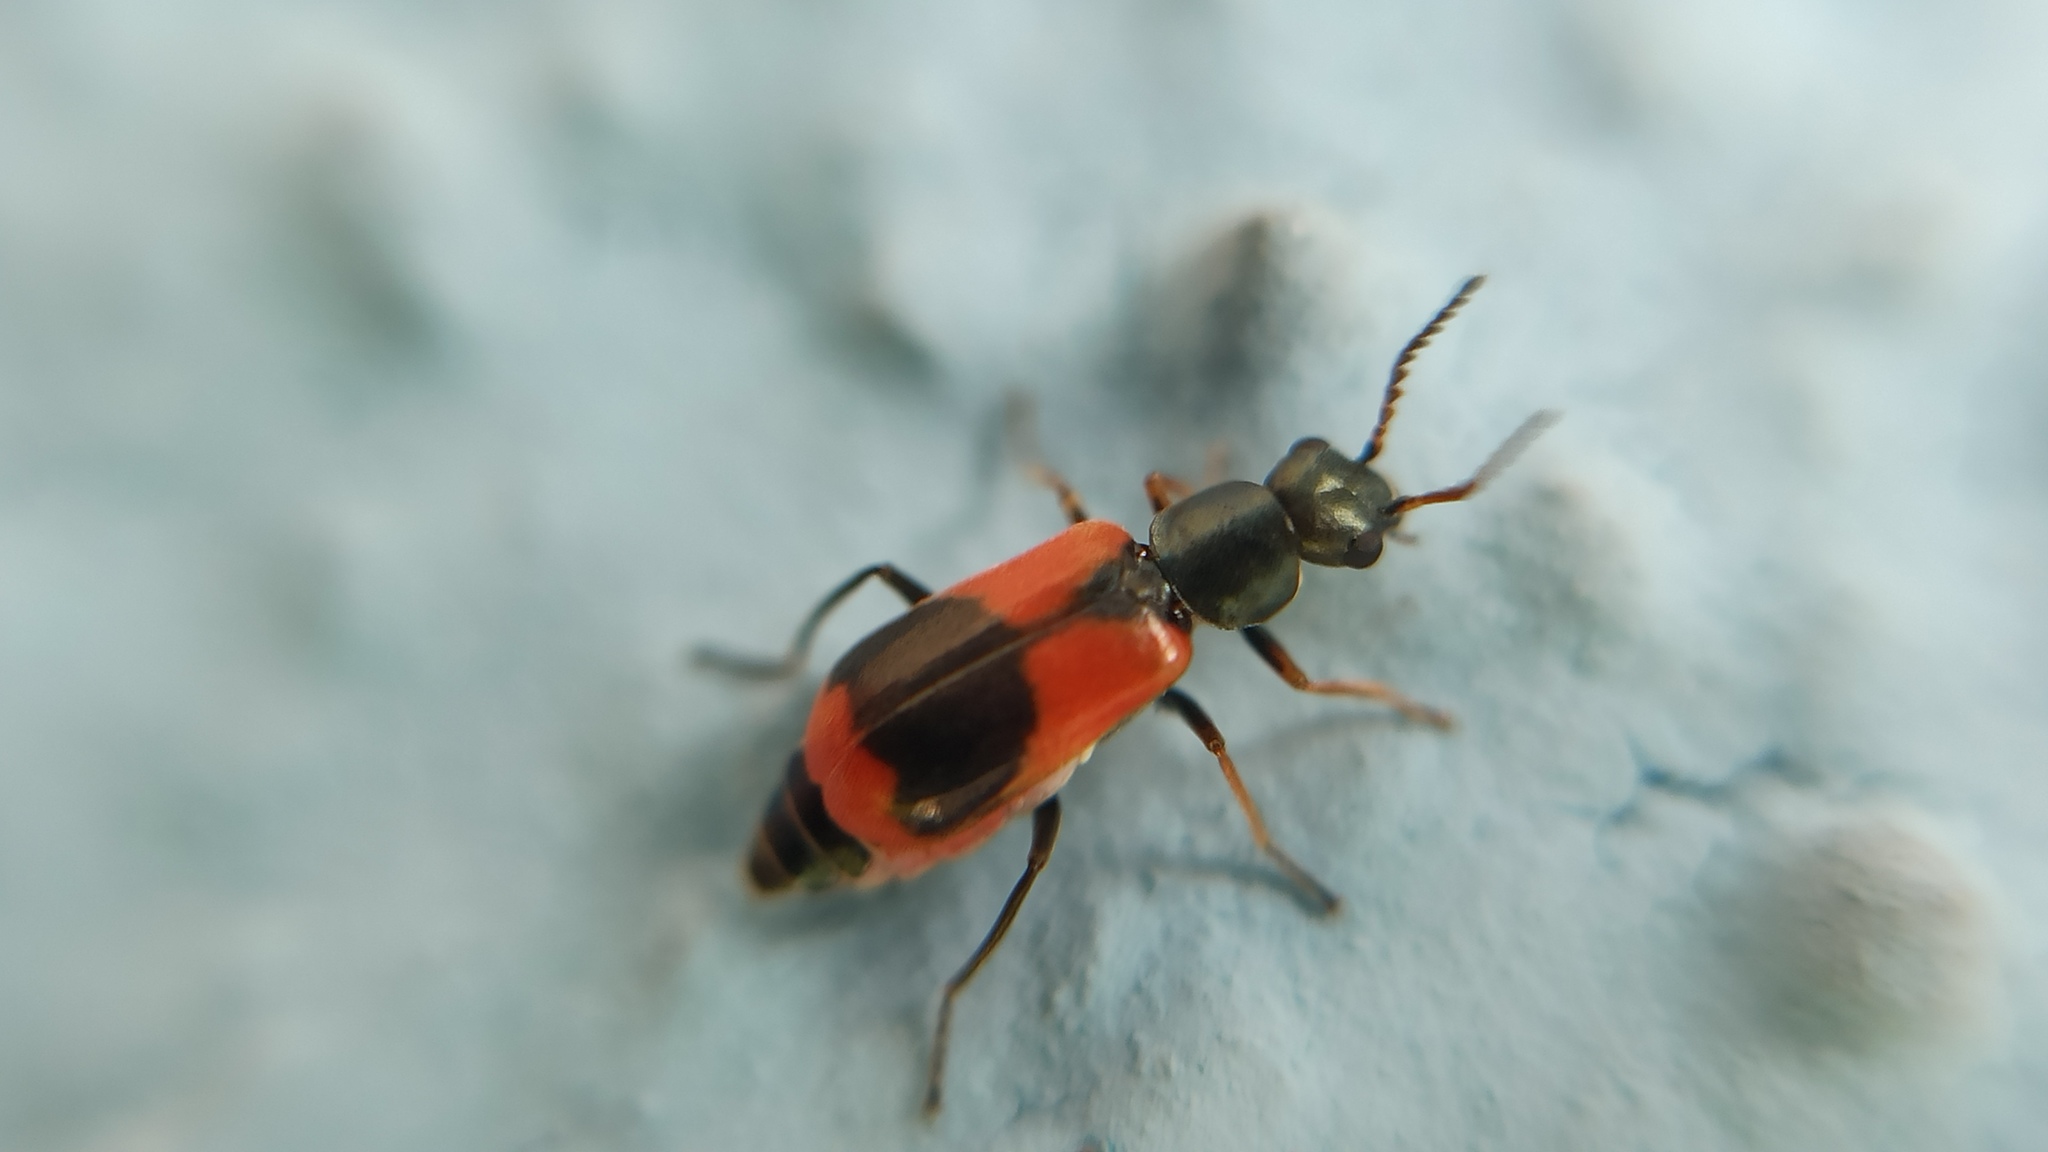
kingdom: Animalia
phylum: Arthropoda
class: Insecta
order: Coleoptera
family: Melyridae
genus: Anthocomus
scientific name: Anthocomus equestris
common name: Black-banded soft-winged flower beetle
